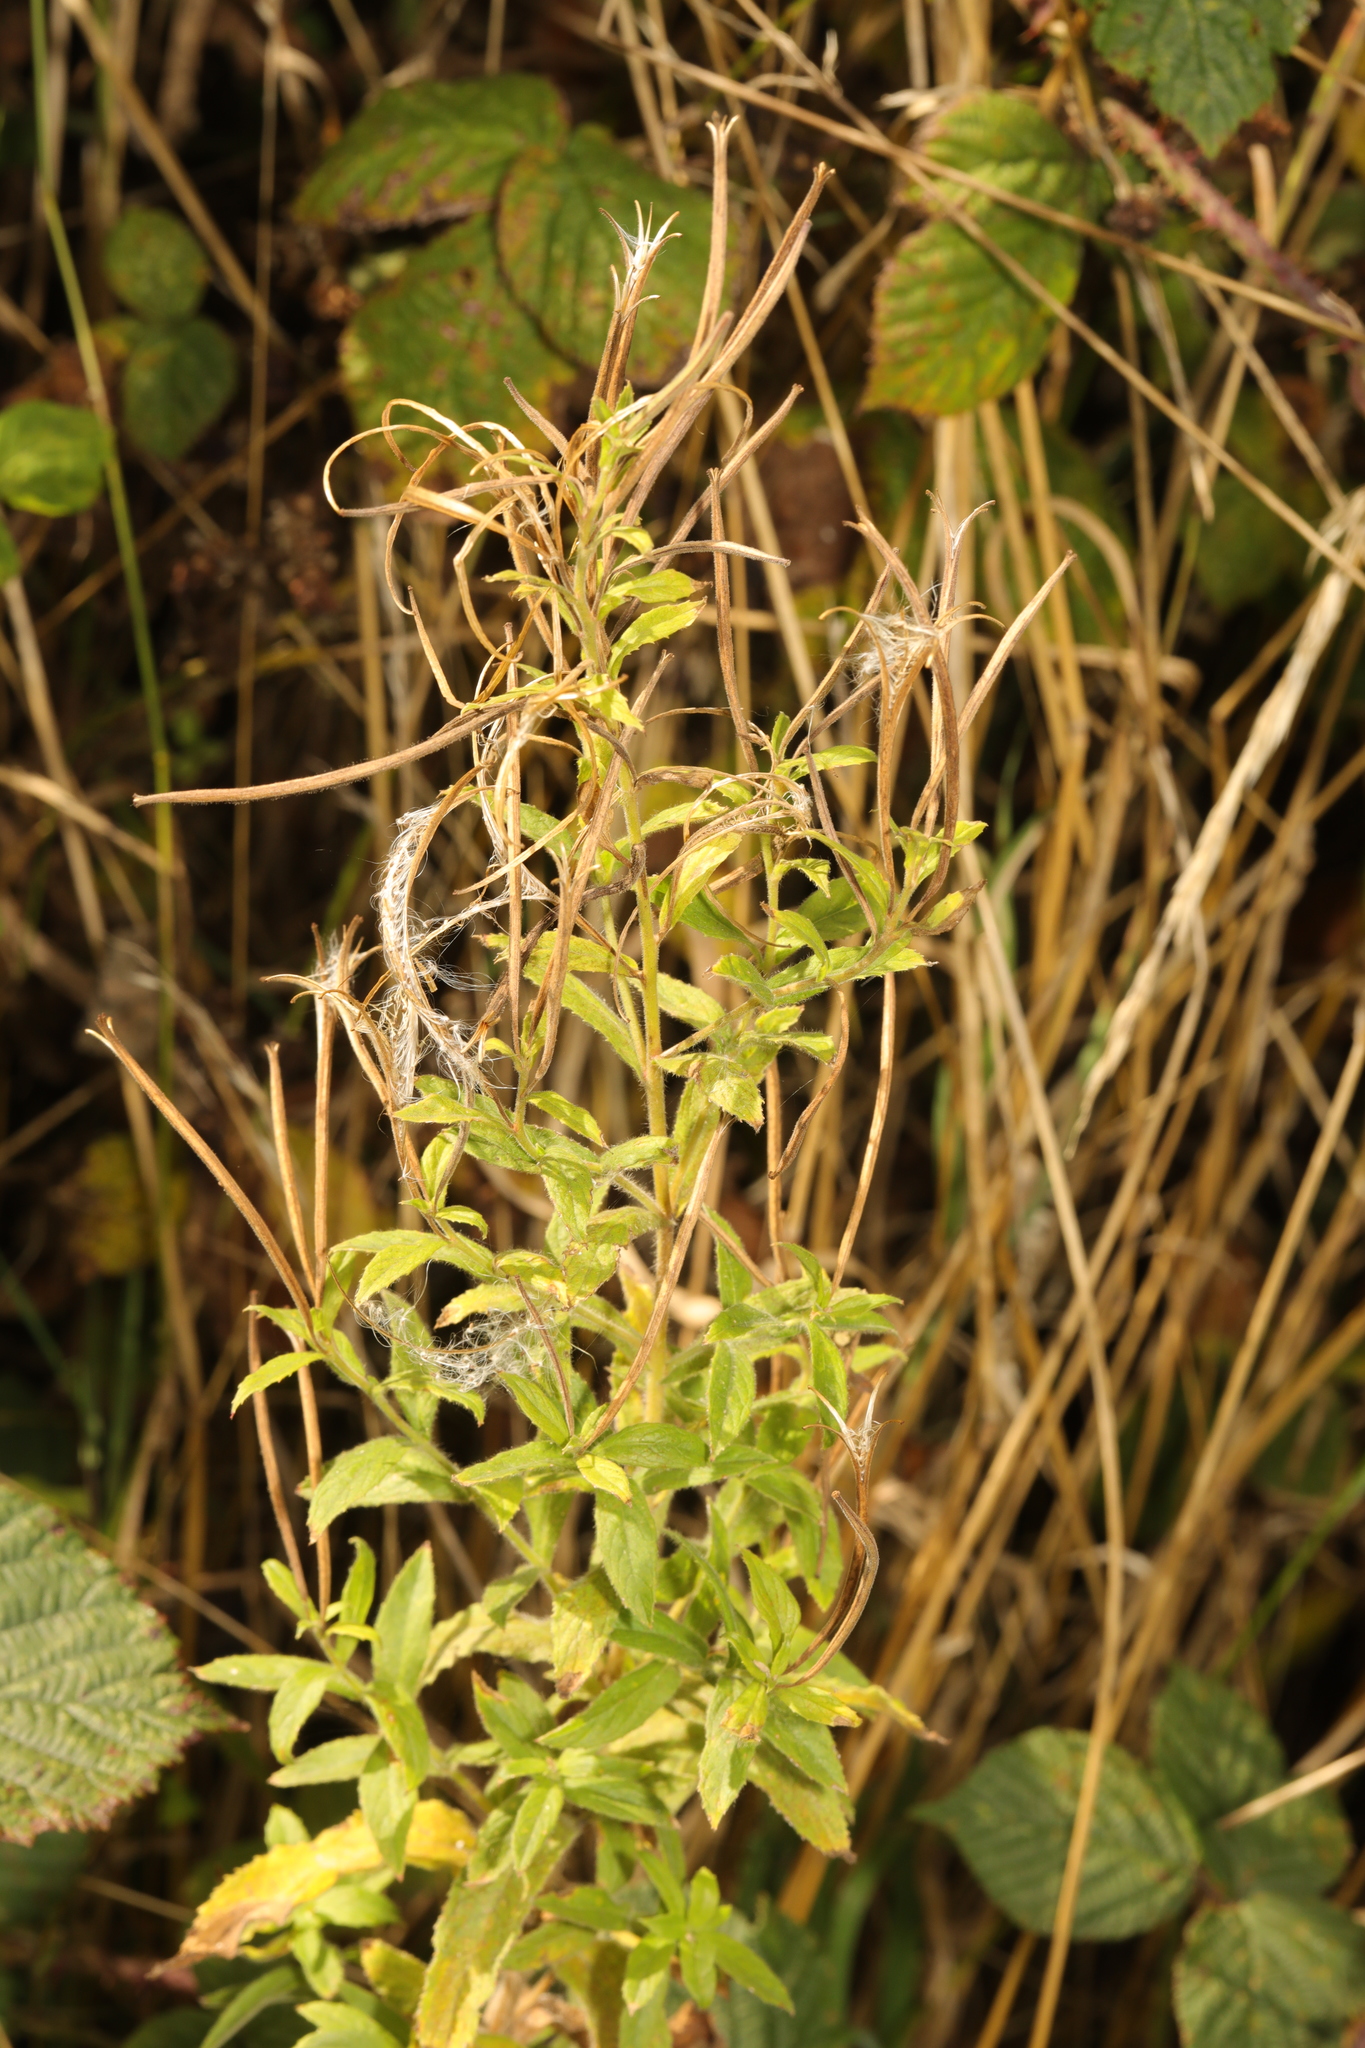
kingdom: Plantae
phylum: Tracheophyta
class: Magnoliopsida
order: Myrtales
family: Onagraceae
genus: Epilobium
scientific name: Epilobium hirsutum
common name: Great willowherb
